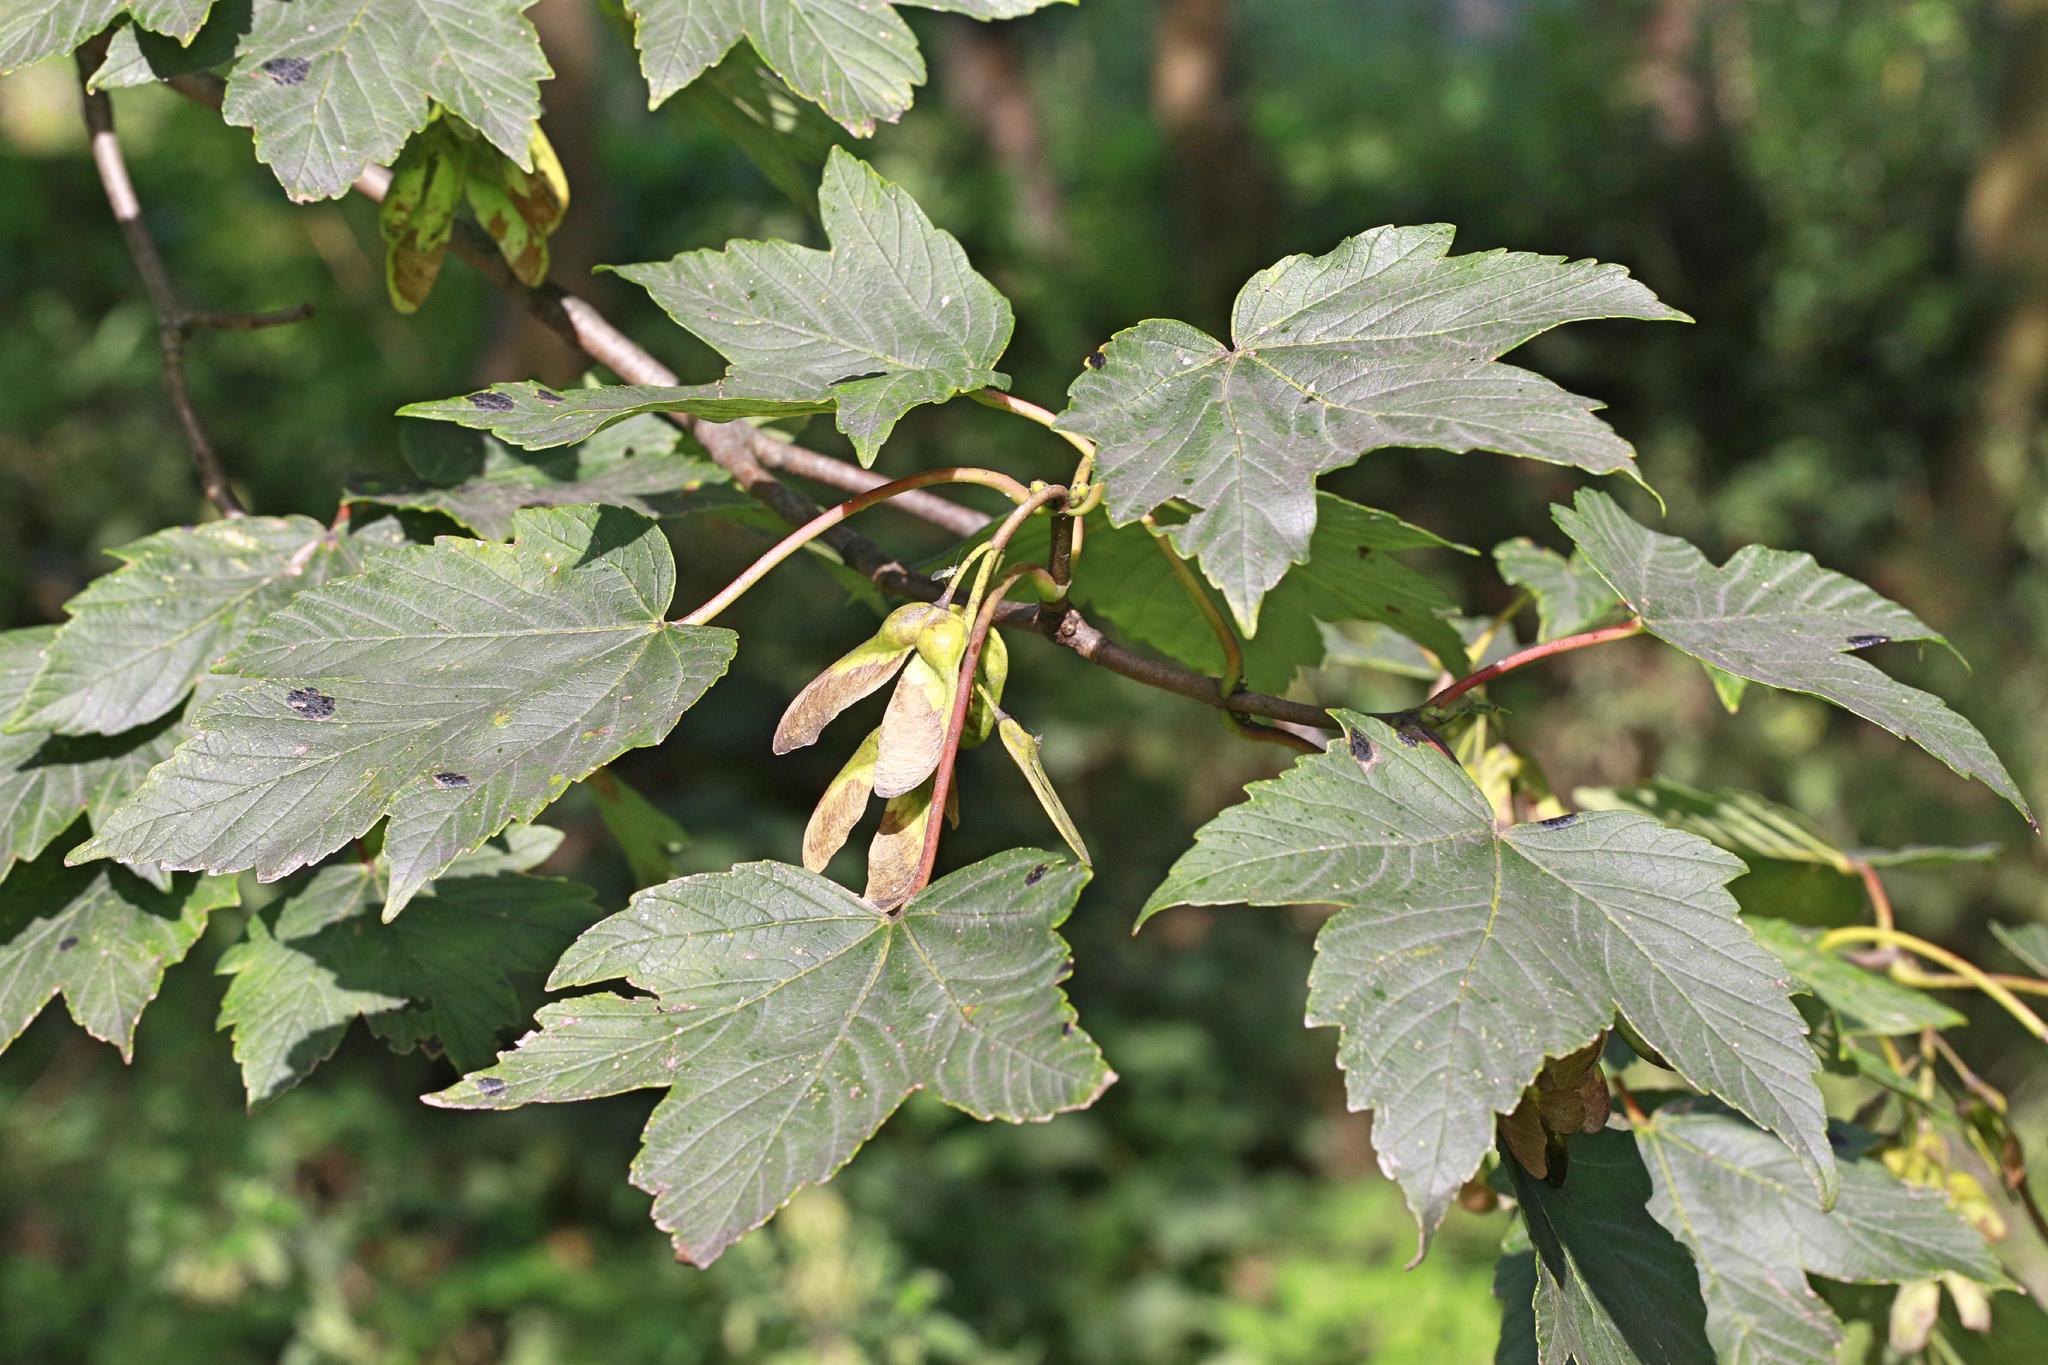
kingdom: Fungi
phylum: Ascomycota
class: Leotiomycetes
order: Rhytismatales
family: Rhytismataceae
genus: Rhytisma
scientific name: Rhytisma acerinum
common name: European tar spot
